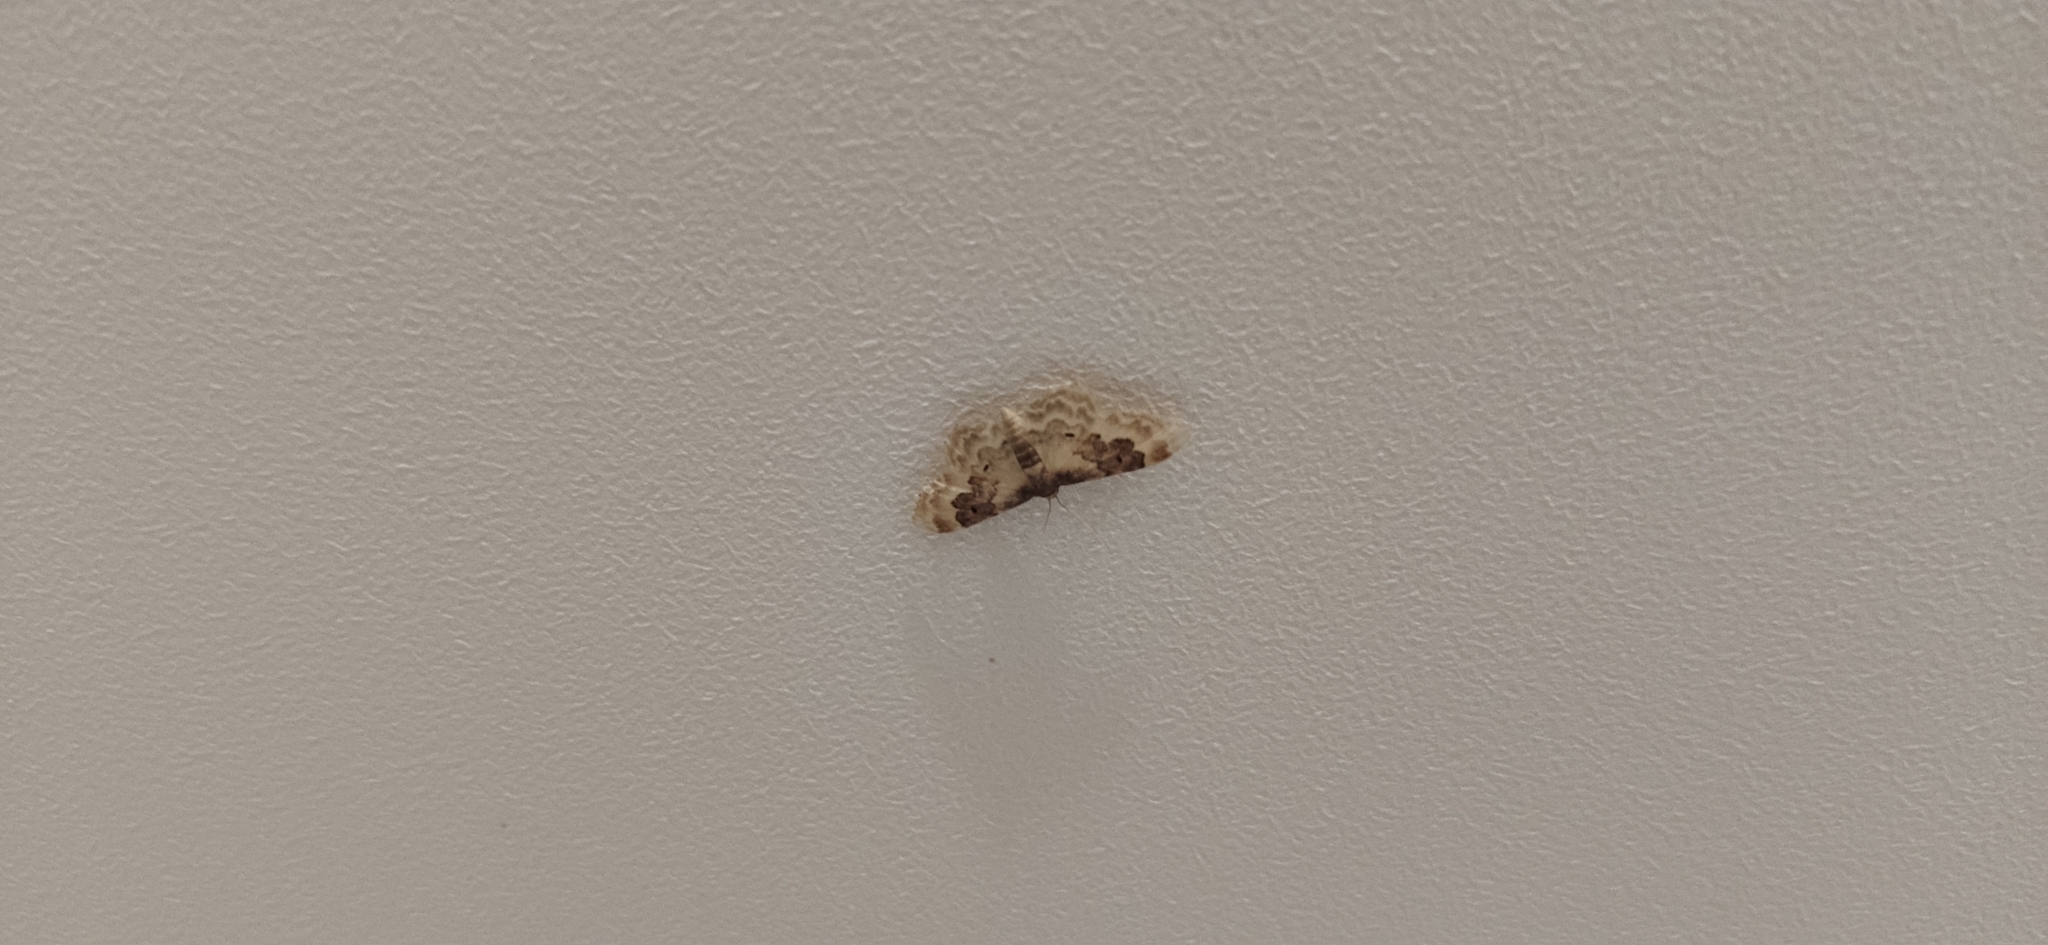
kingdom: Animalia
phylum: Arthropoda
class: Insecta
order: Lepidoptera
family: Geometridae
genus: Idaea
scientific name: Idaea rusticata
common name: Least carpet
